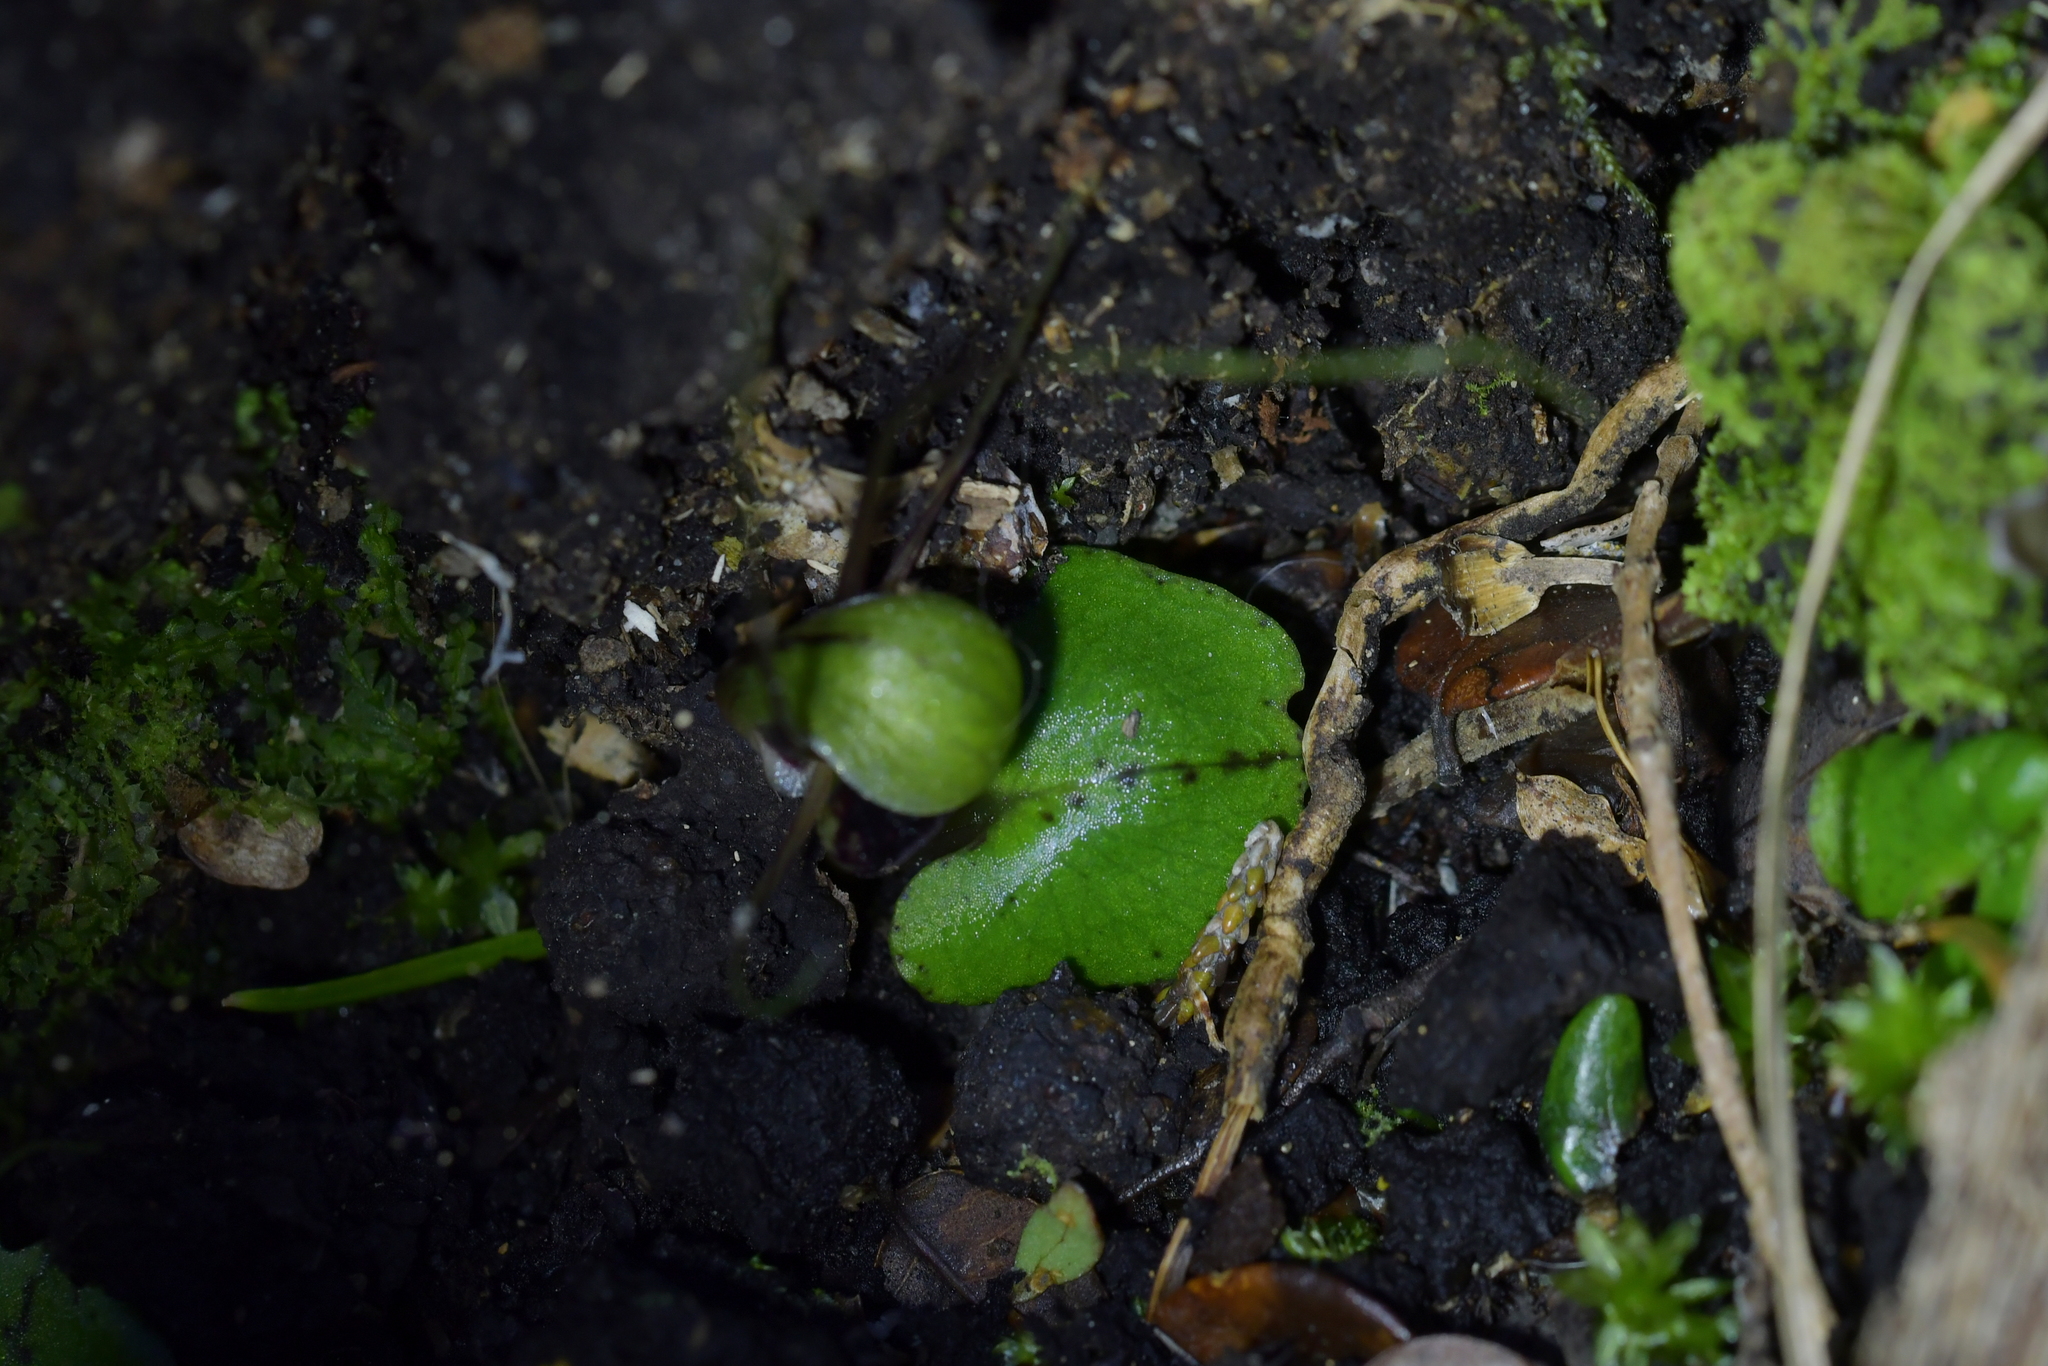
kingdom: Plantae
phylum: Tracheophyta
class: Liliopsida
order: Asparagales
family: Orchidaceae
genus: Corybas
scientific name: Corybas vitreus
